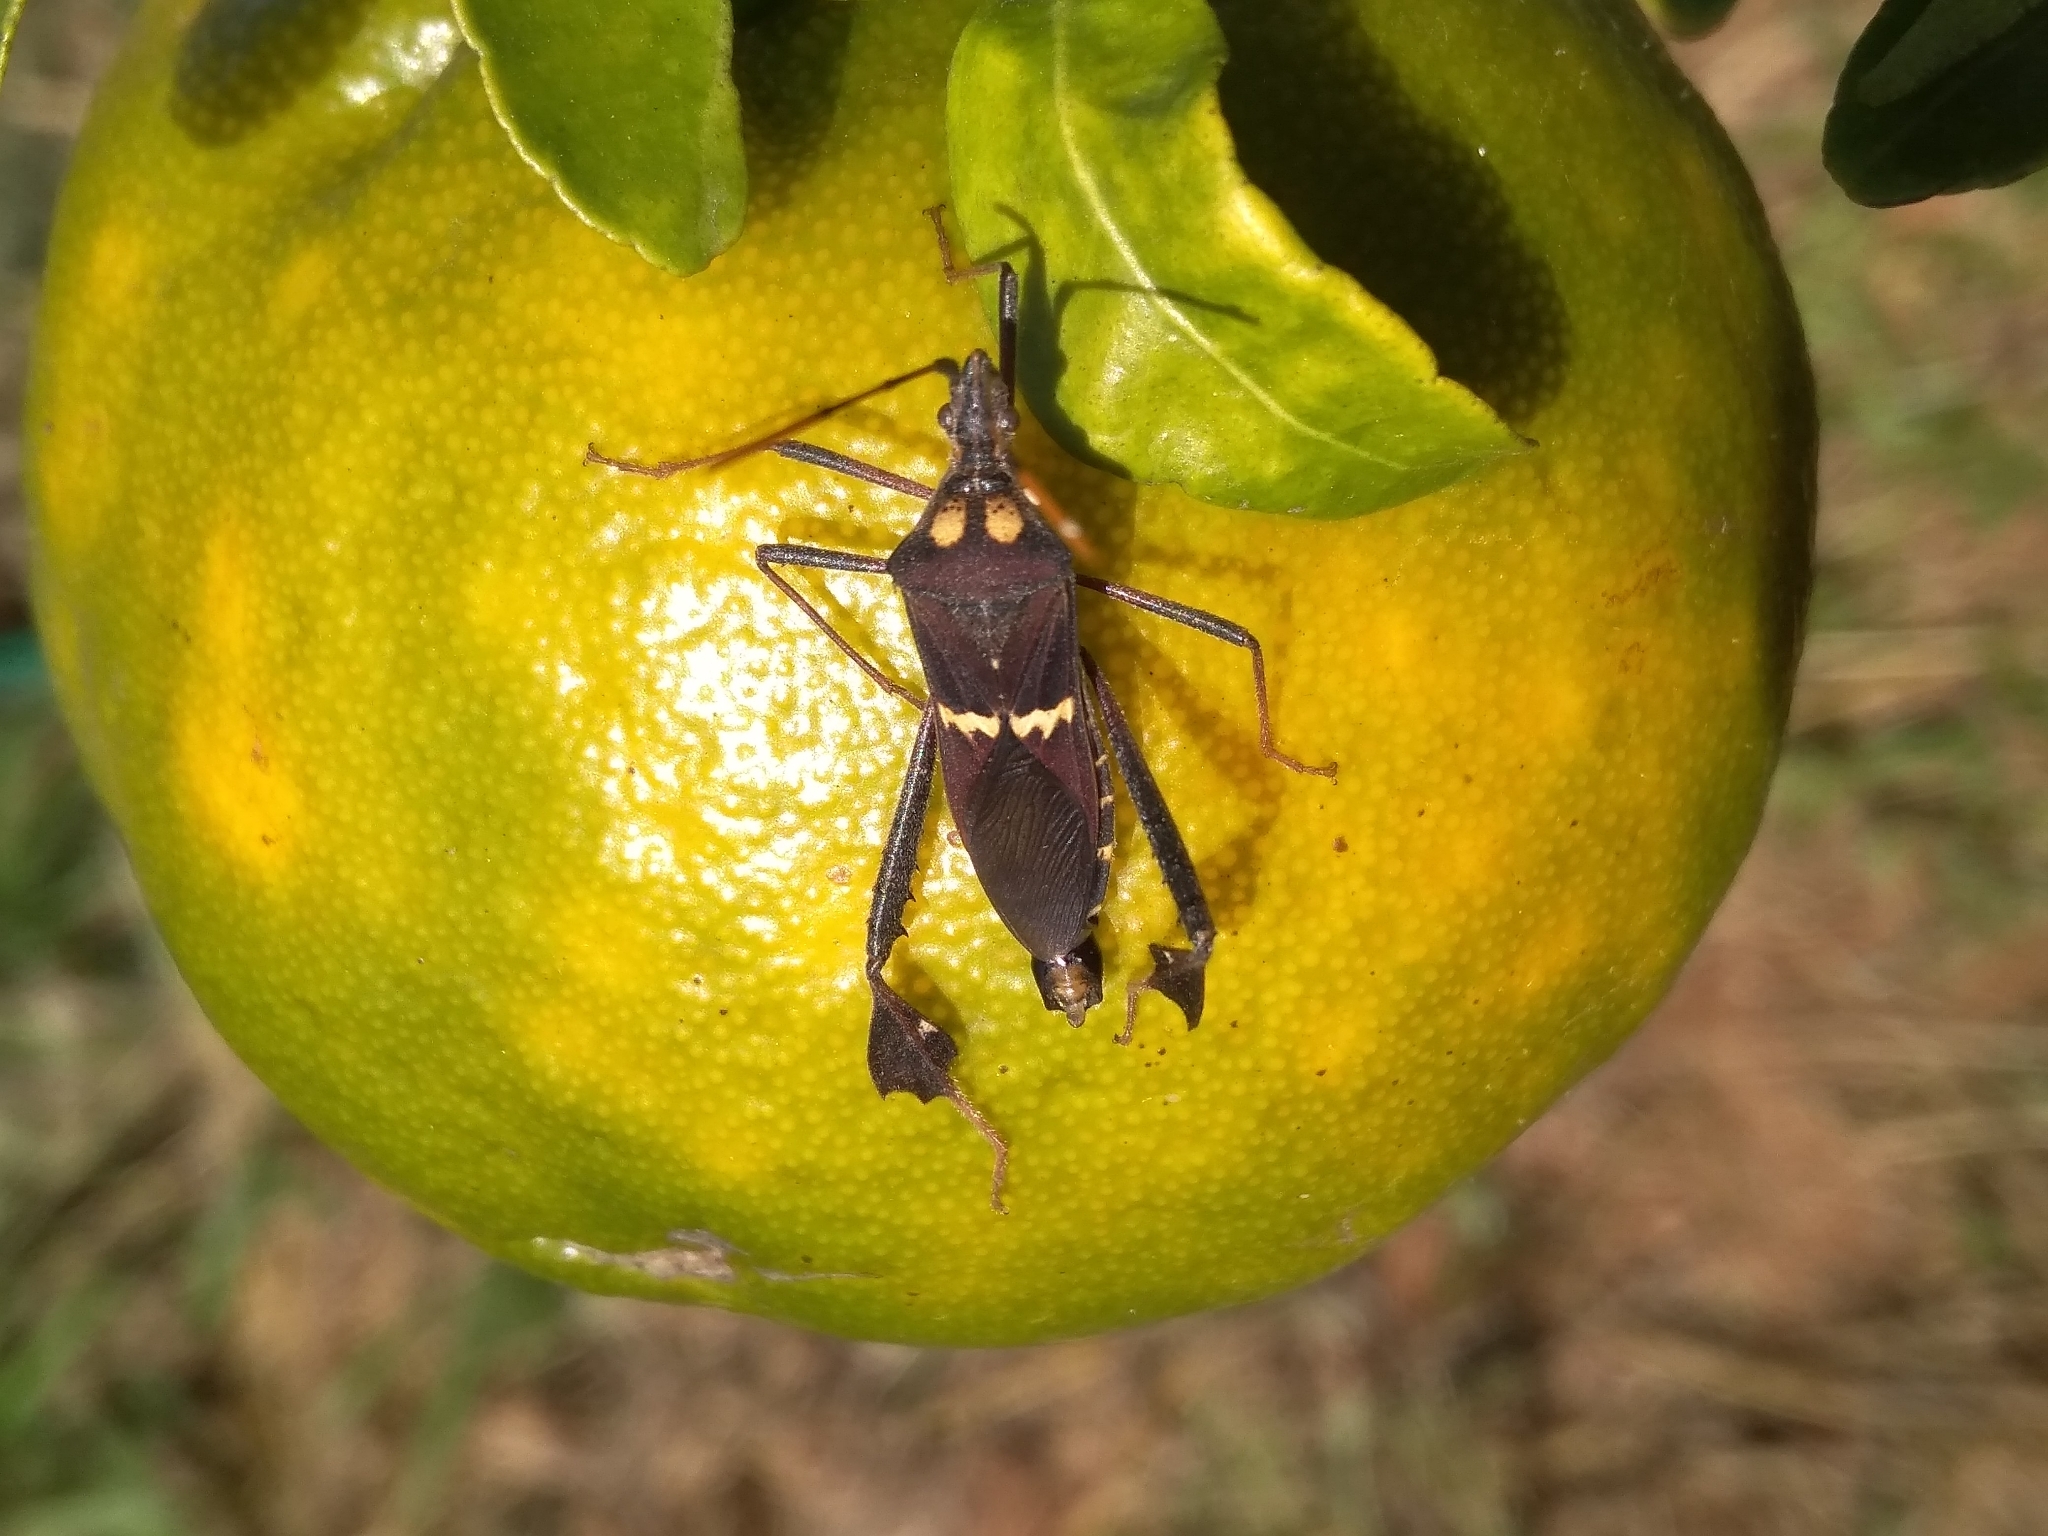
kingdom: Animalia
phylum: Arthropoda
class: Insecta
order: Hemiptera
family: Coreidae
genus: Leptoglossus
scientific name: Leptoglossus zonatus
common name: Large-legged bug
